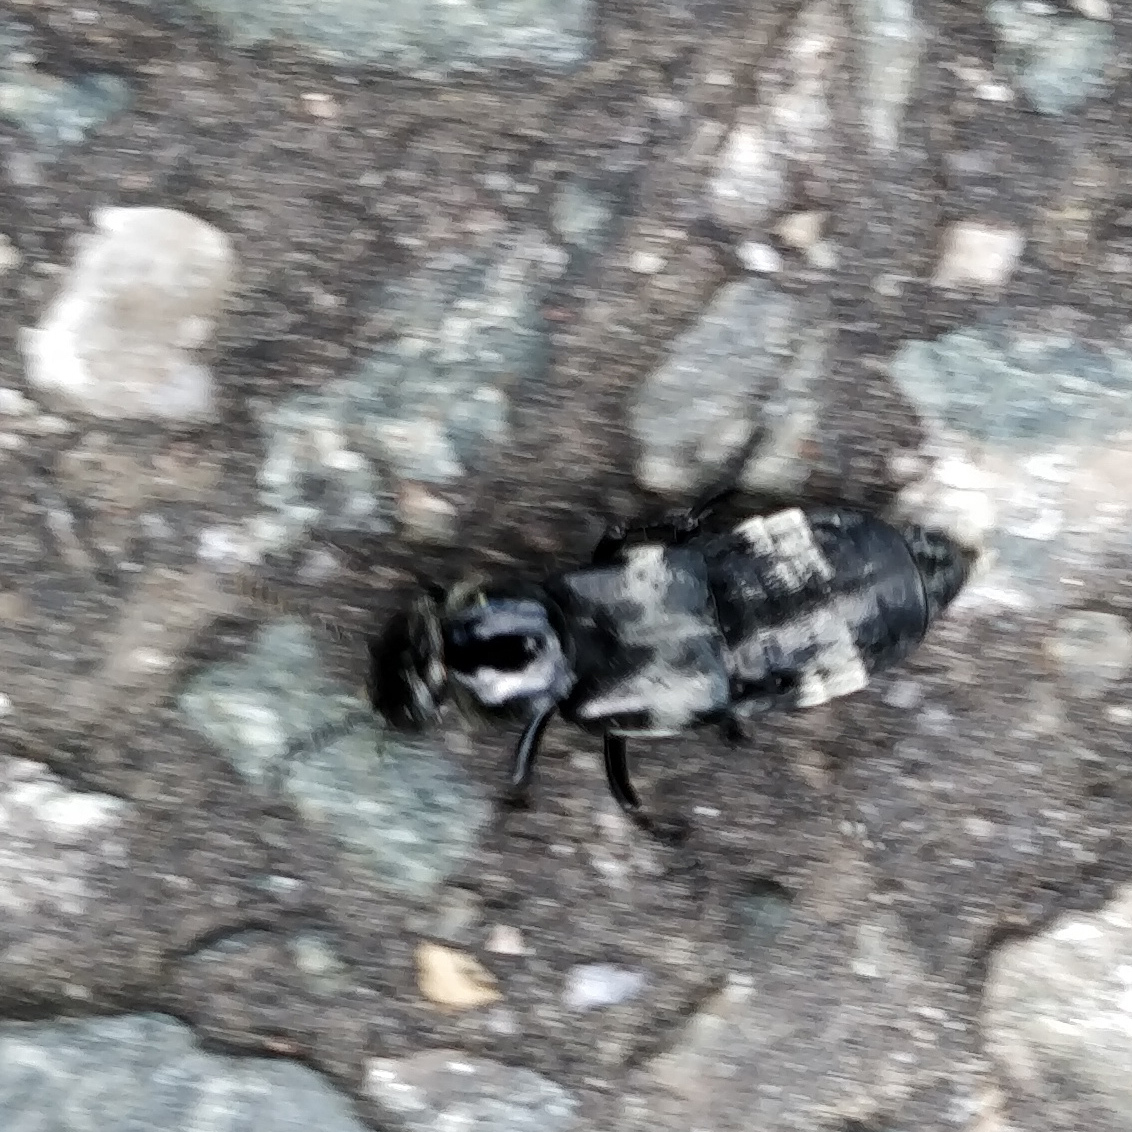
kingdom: Animalia
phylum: Arthropoda
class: Insecta
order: Coleoptera
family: Staphylinidae
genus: Creophilus
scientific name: Creophilus maxillosus
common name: Hairy rove beetle
